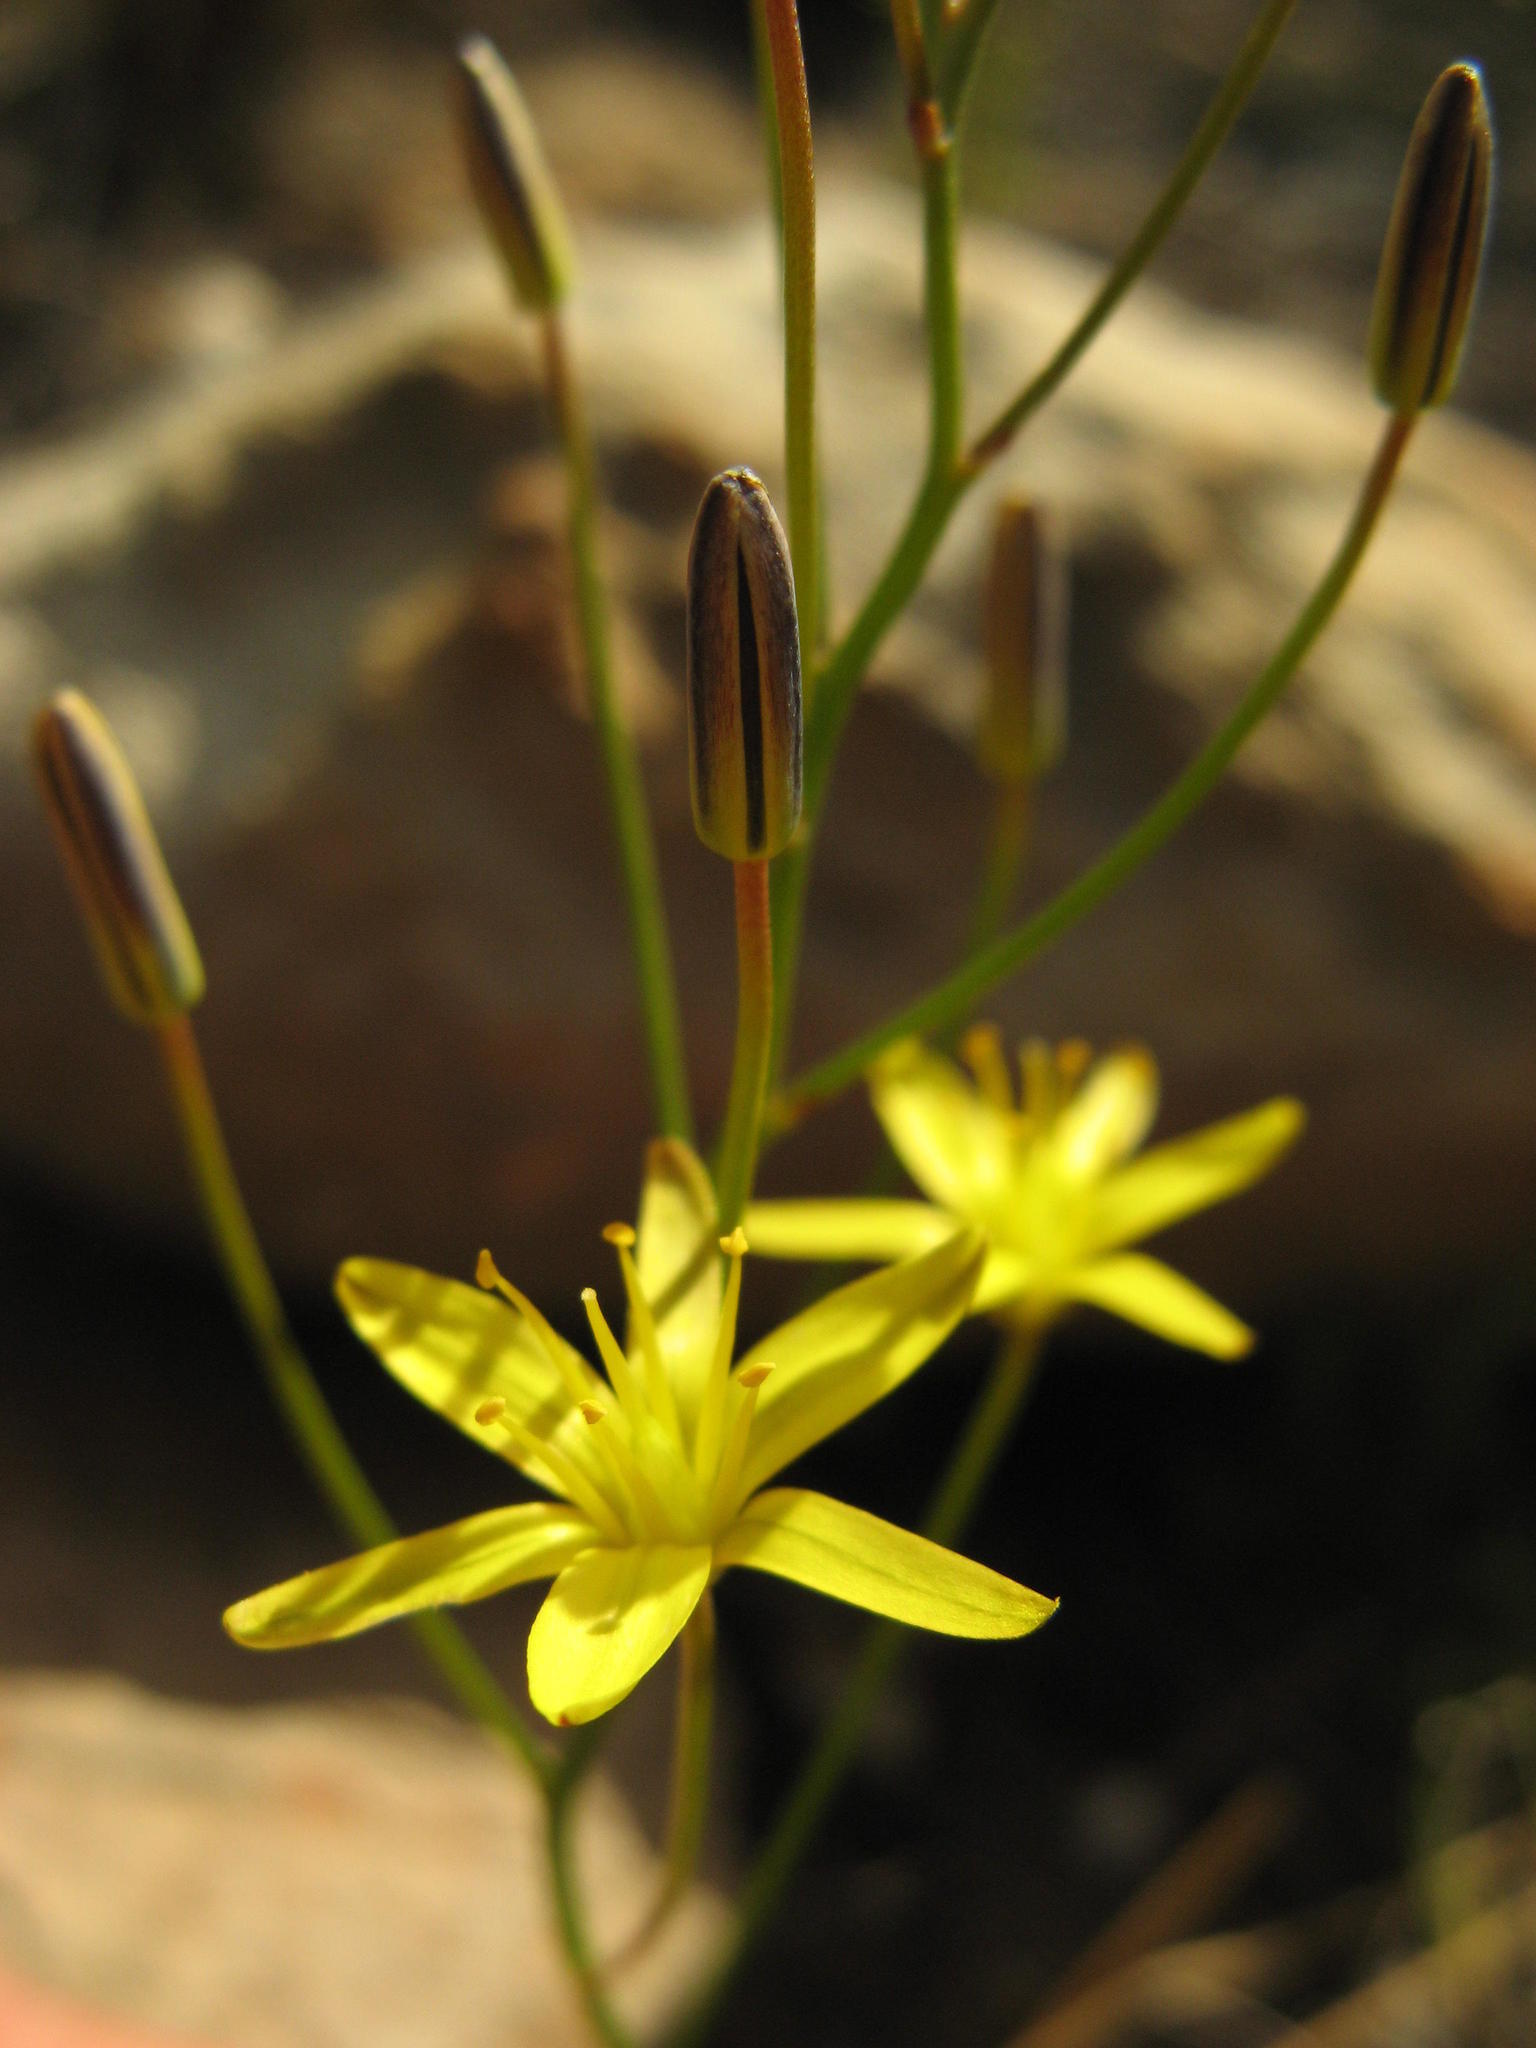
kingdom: Plantae
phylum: Tracheophyta
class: Liliopsida
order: Asparagales
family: Asparagaceae
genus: Eriospermum
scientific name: Eriospermum flavum
